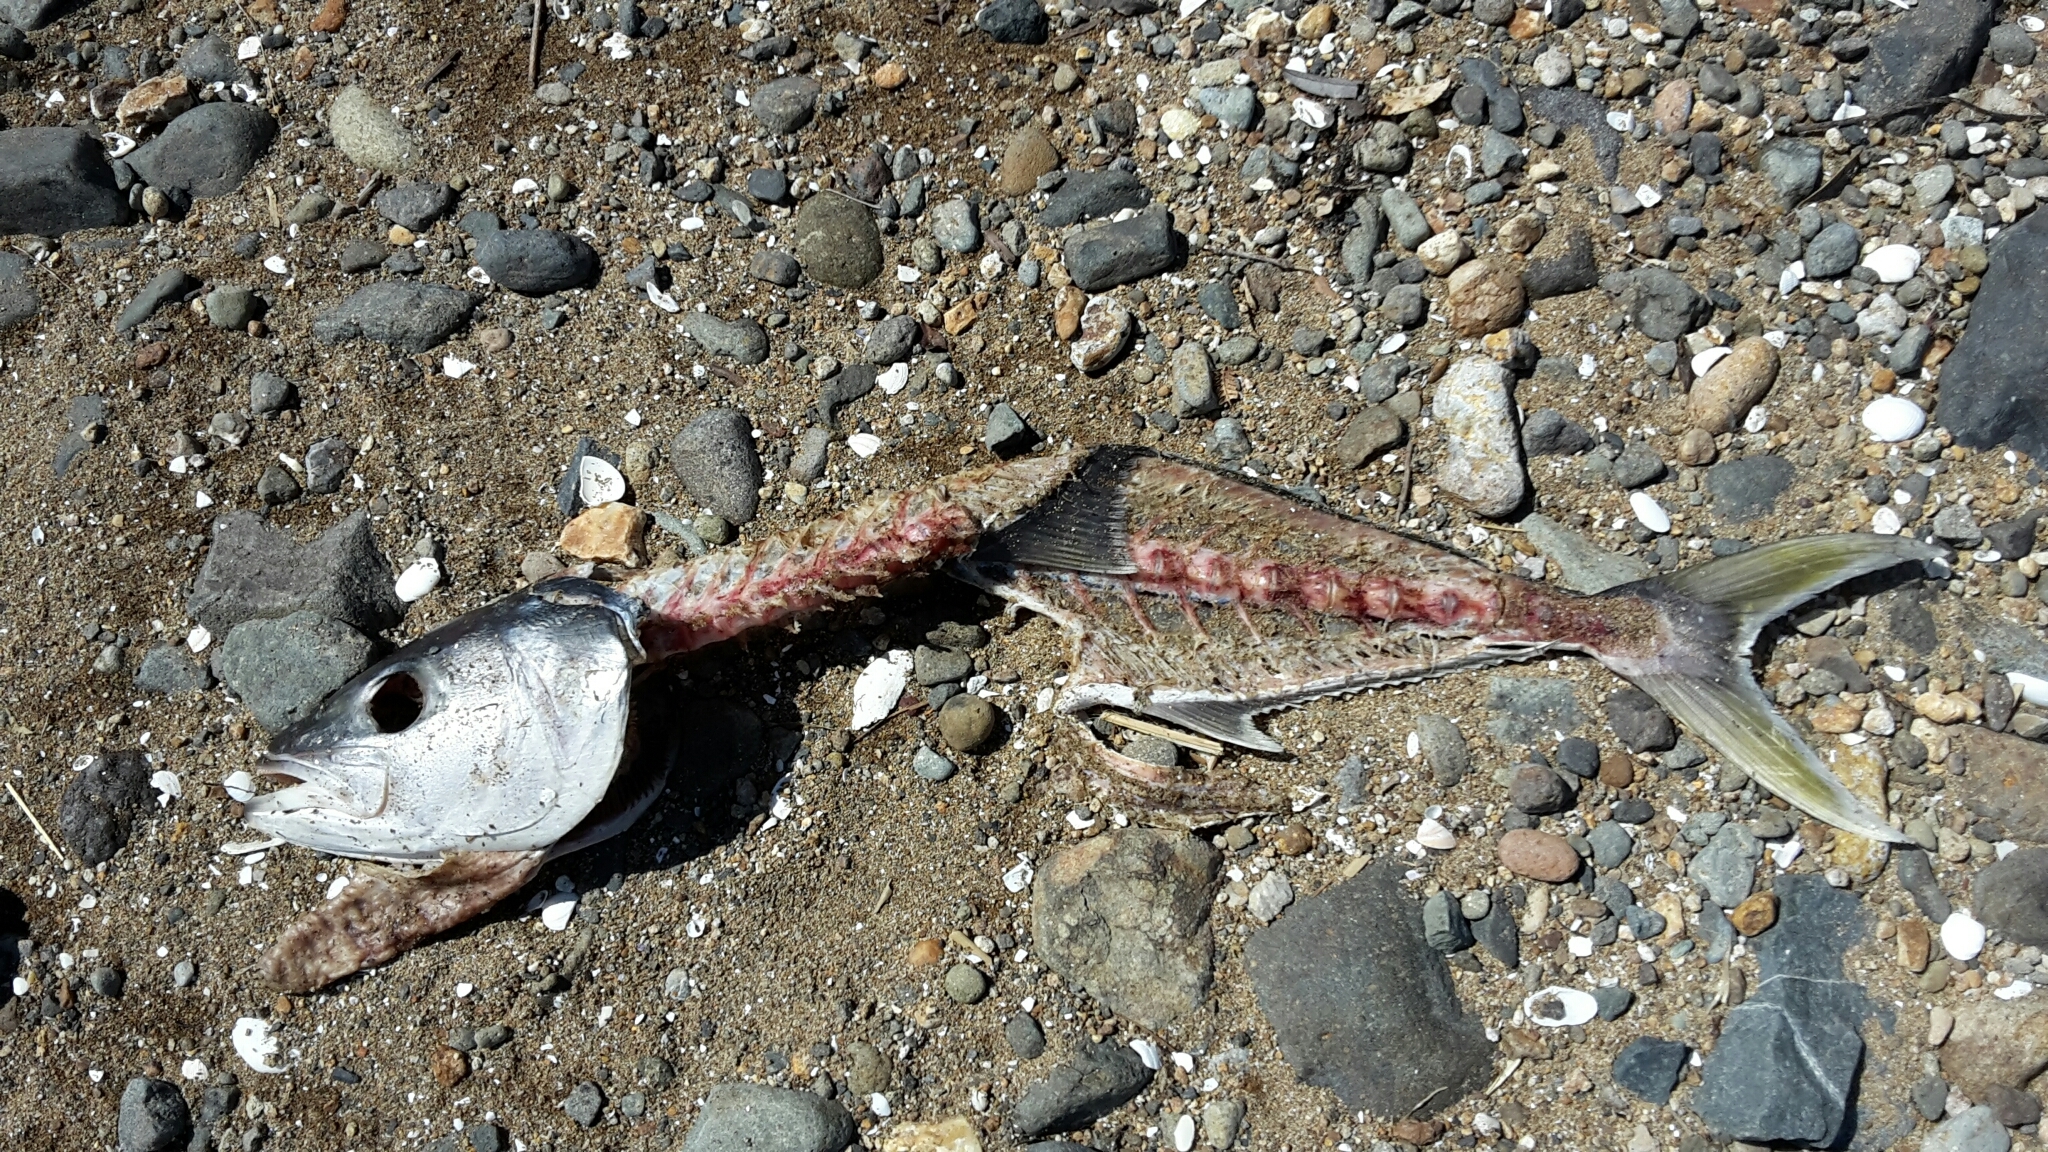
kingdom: Animalia
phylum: Chordata
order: Perciformes
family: Carangidae
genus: Seriola
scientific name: Seriola lalandi
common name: Yellowtail kingfish
